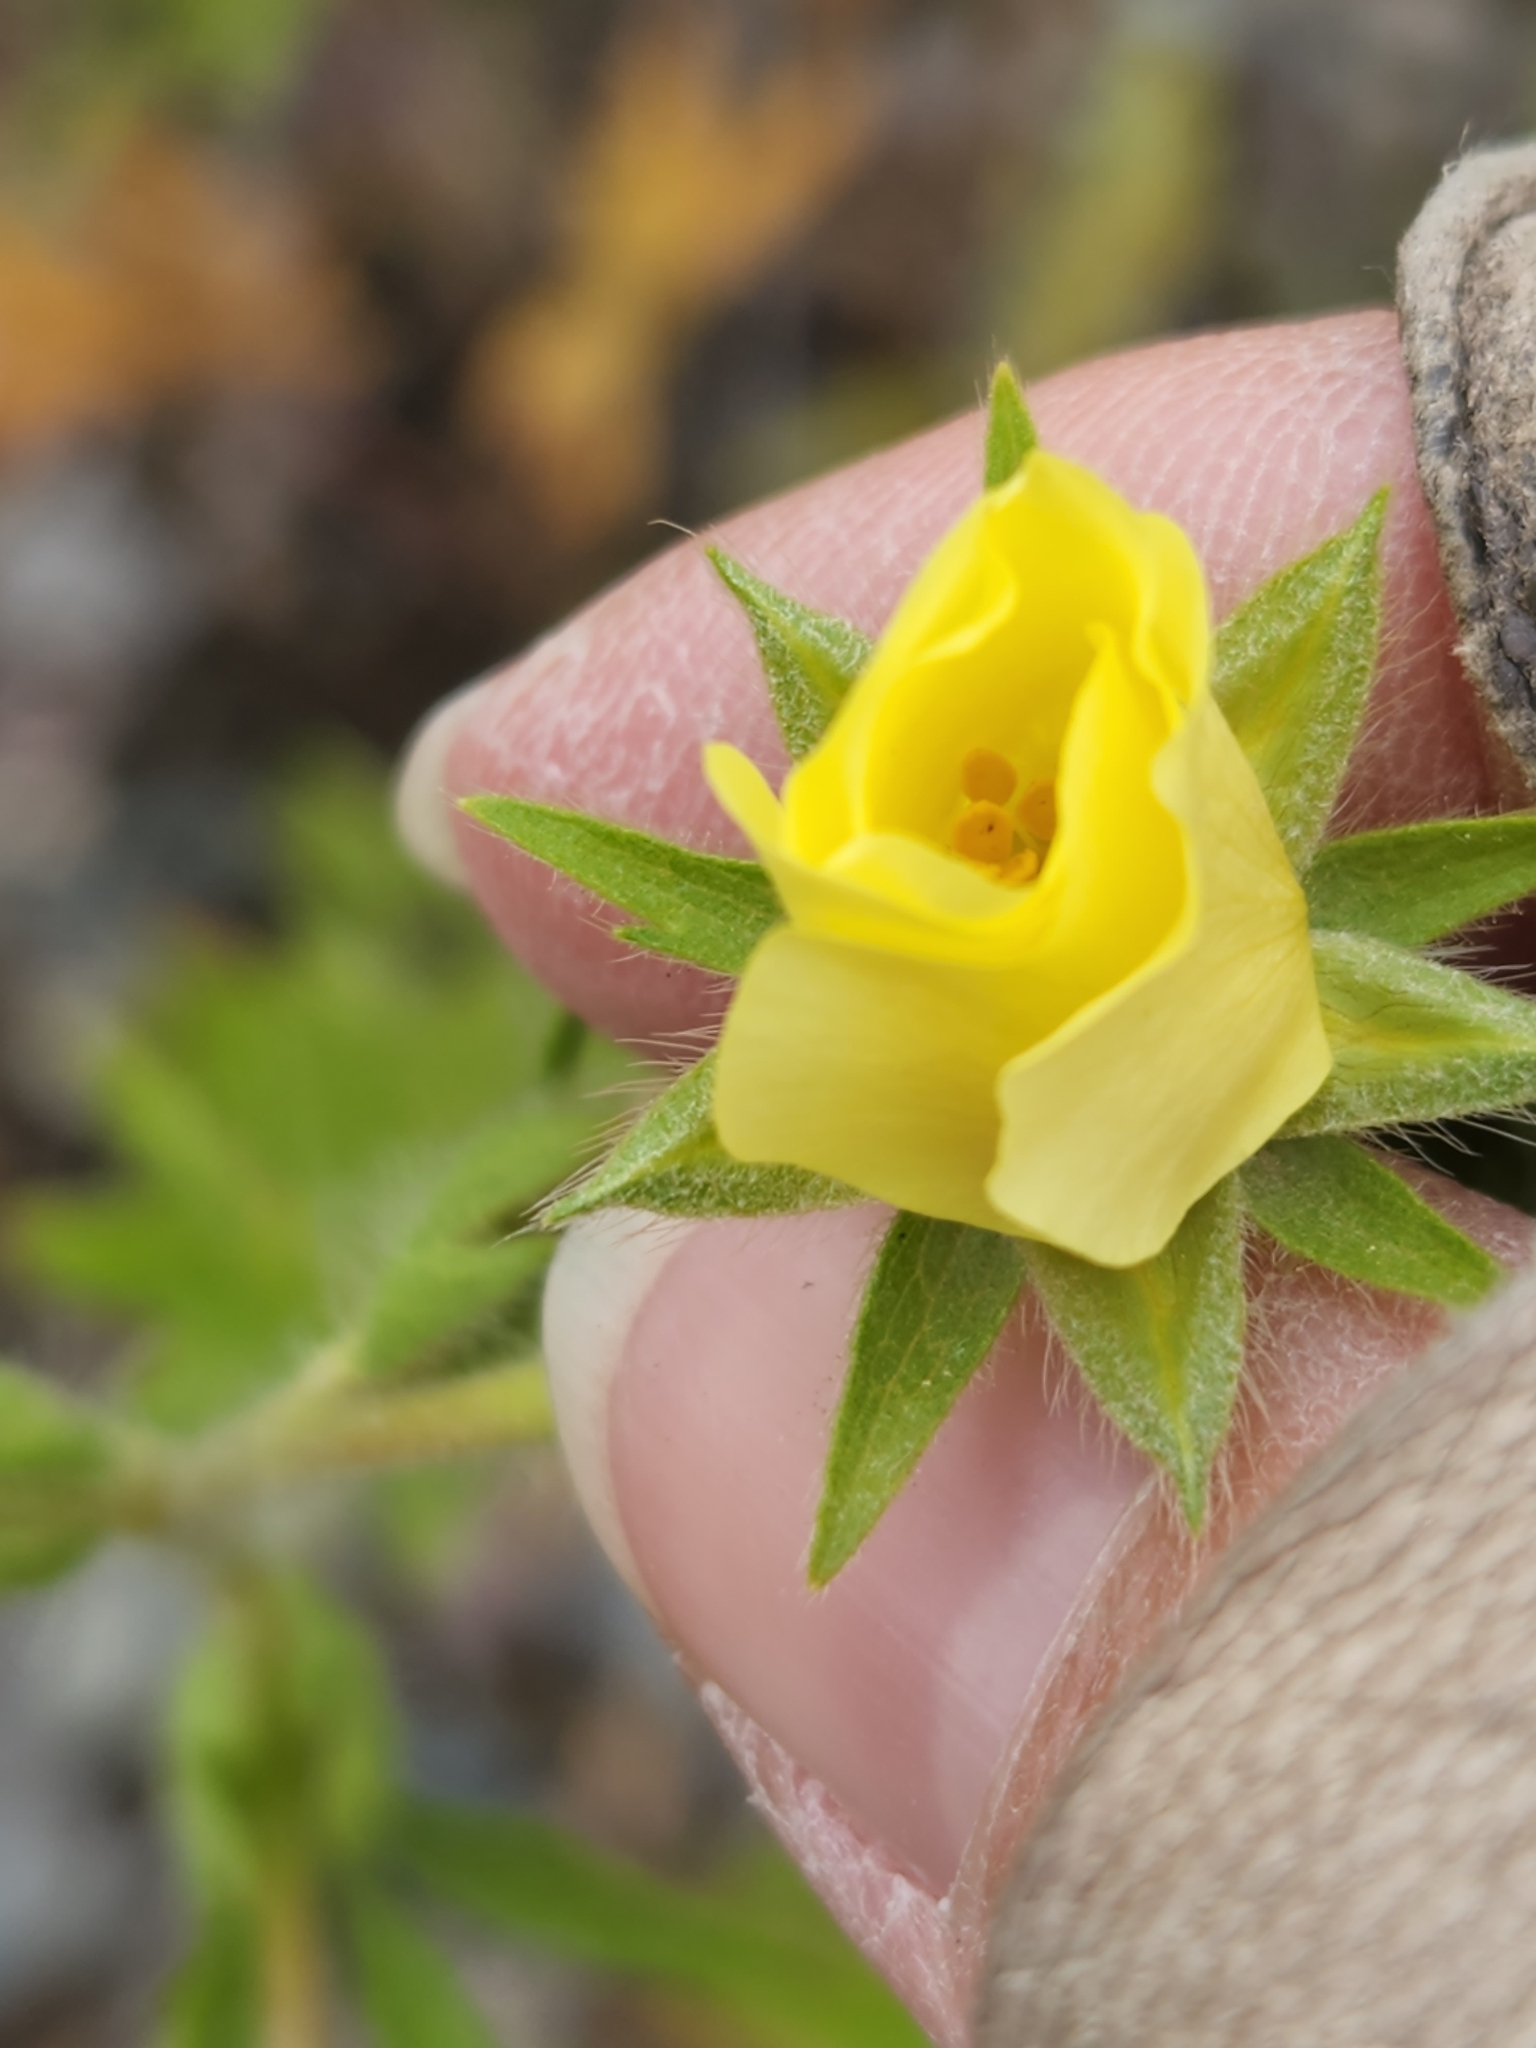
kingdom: Plantae
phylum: Tracheophyta
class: Magnoliopsida
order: Rosales
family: Rosaceae
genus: Potentilla
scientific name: Potentilla recta
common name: Sulphur cinquefoil
